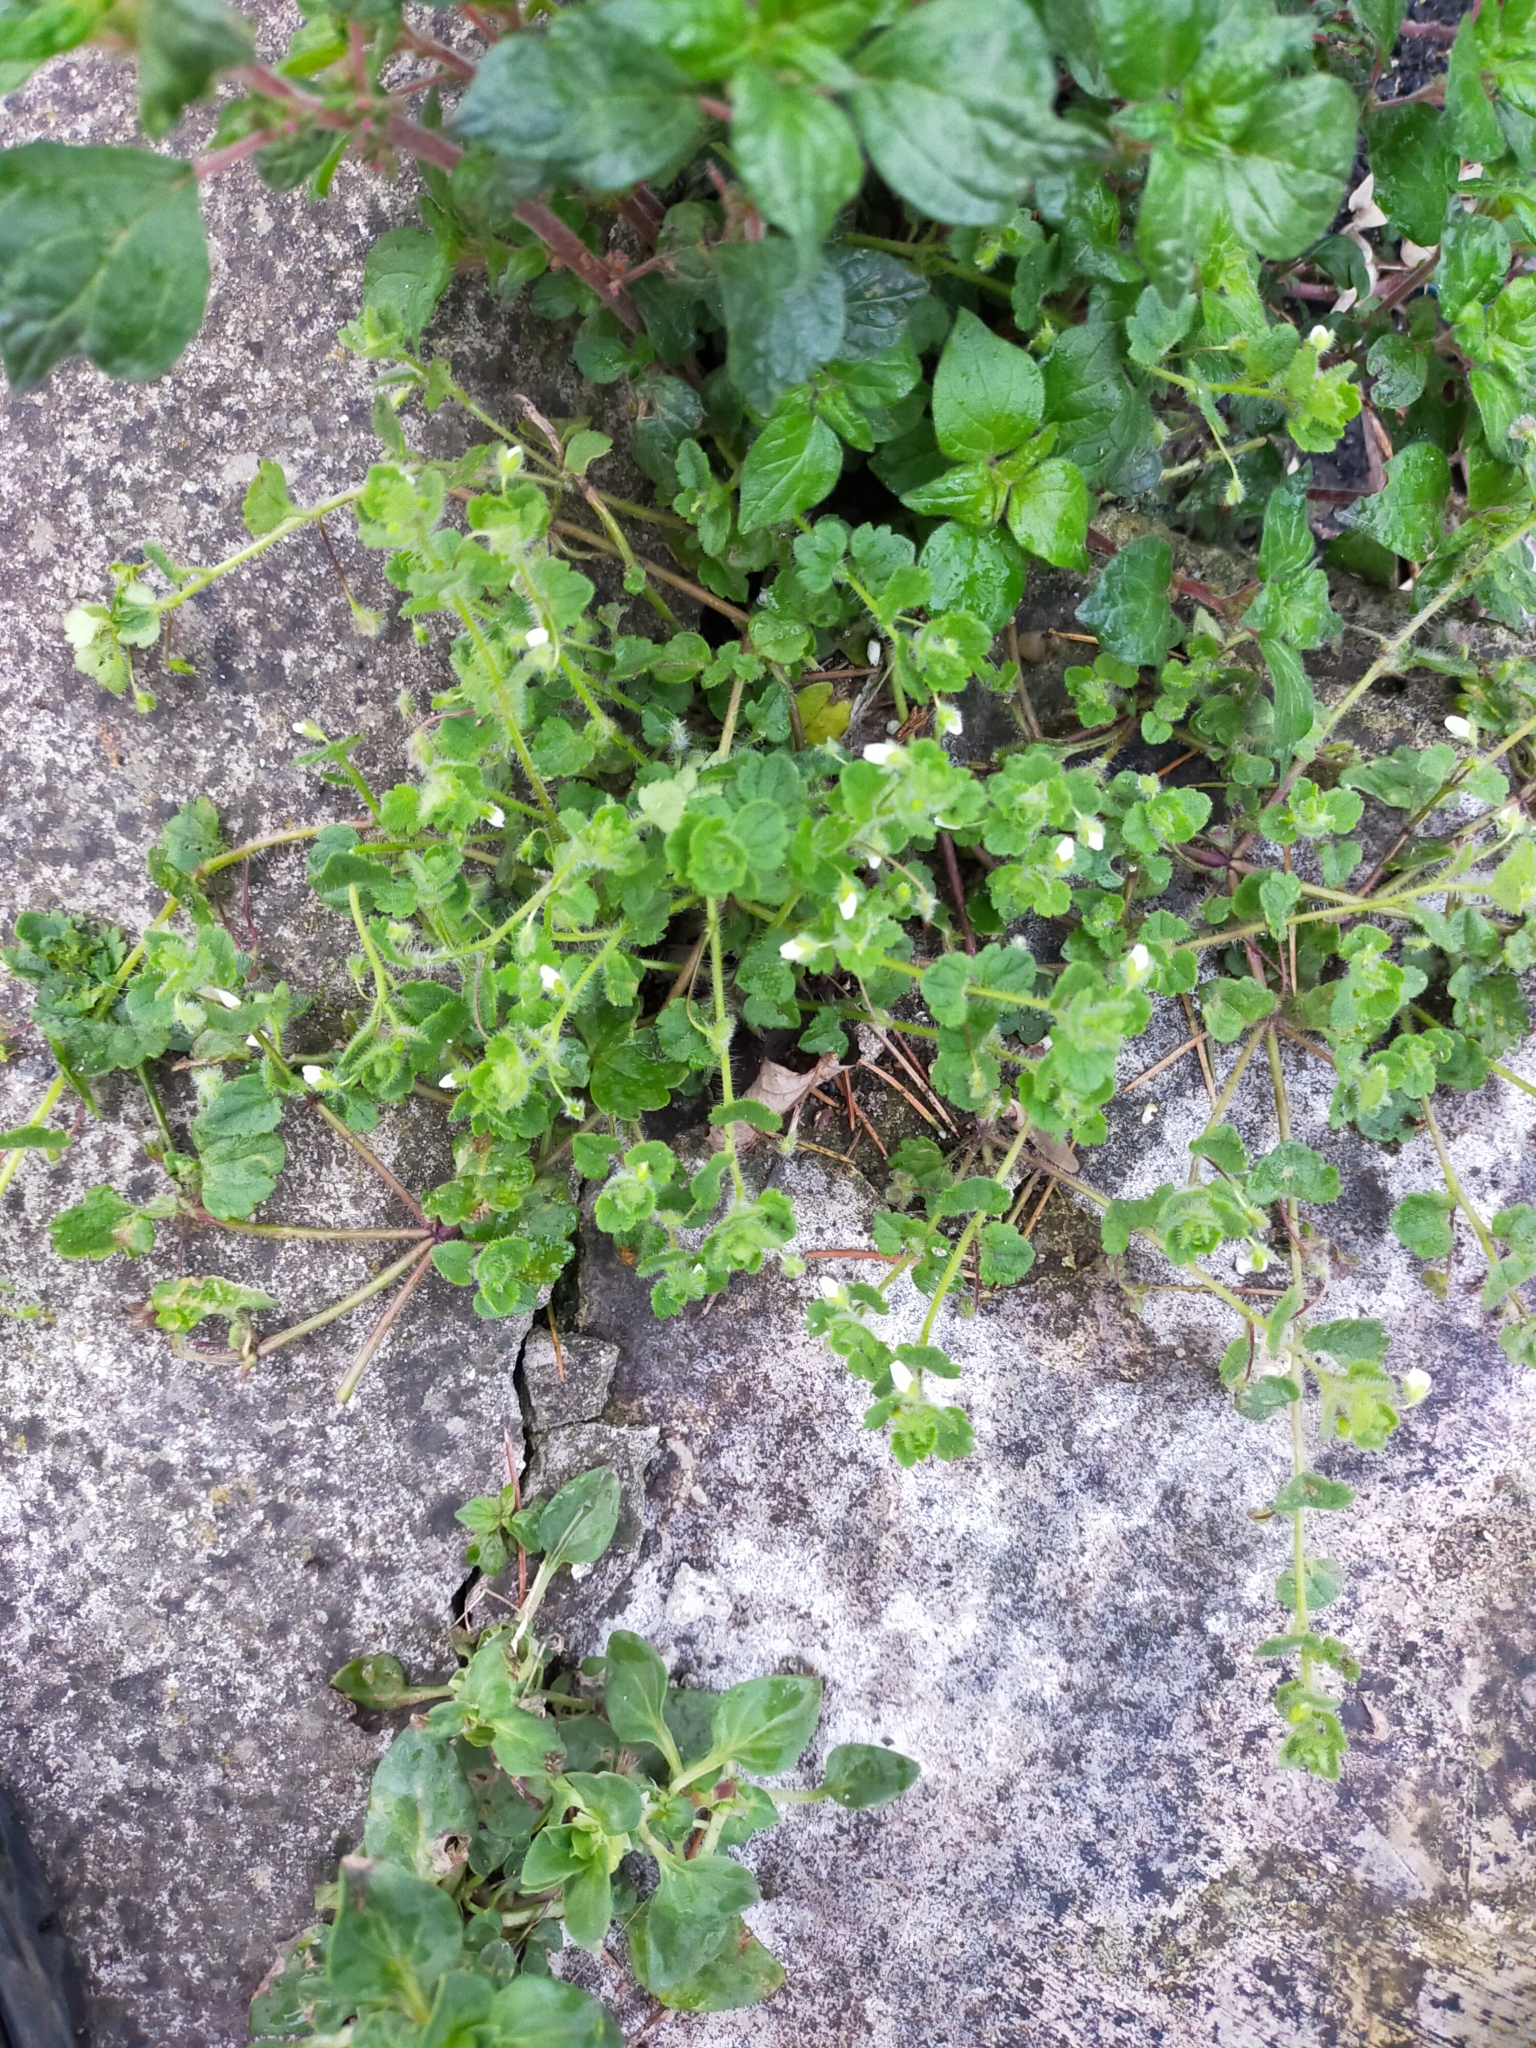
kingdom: Plantae
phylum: Tracheophyta
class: Magnoliopsida
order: Lamiales
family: Plantaginaceae
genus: Veronica
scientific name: Veronica cymbalaria
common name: Pale speedwell
